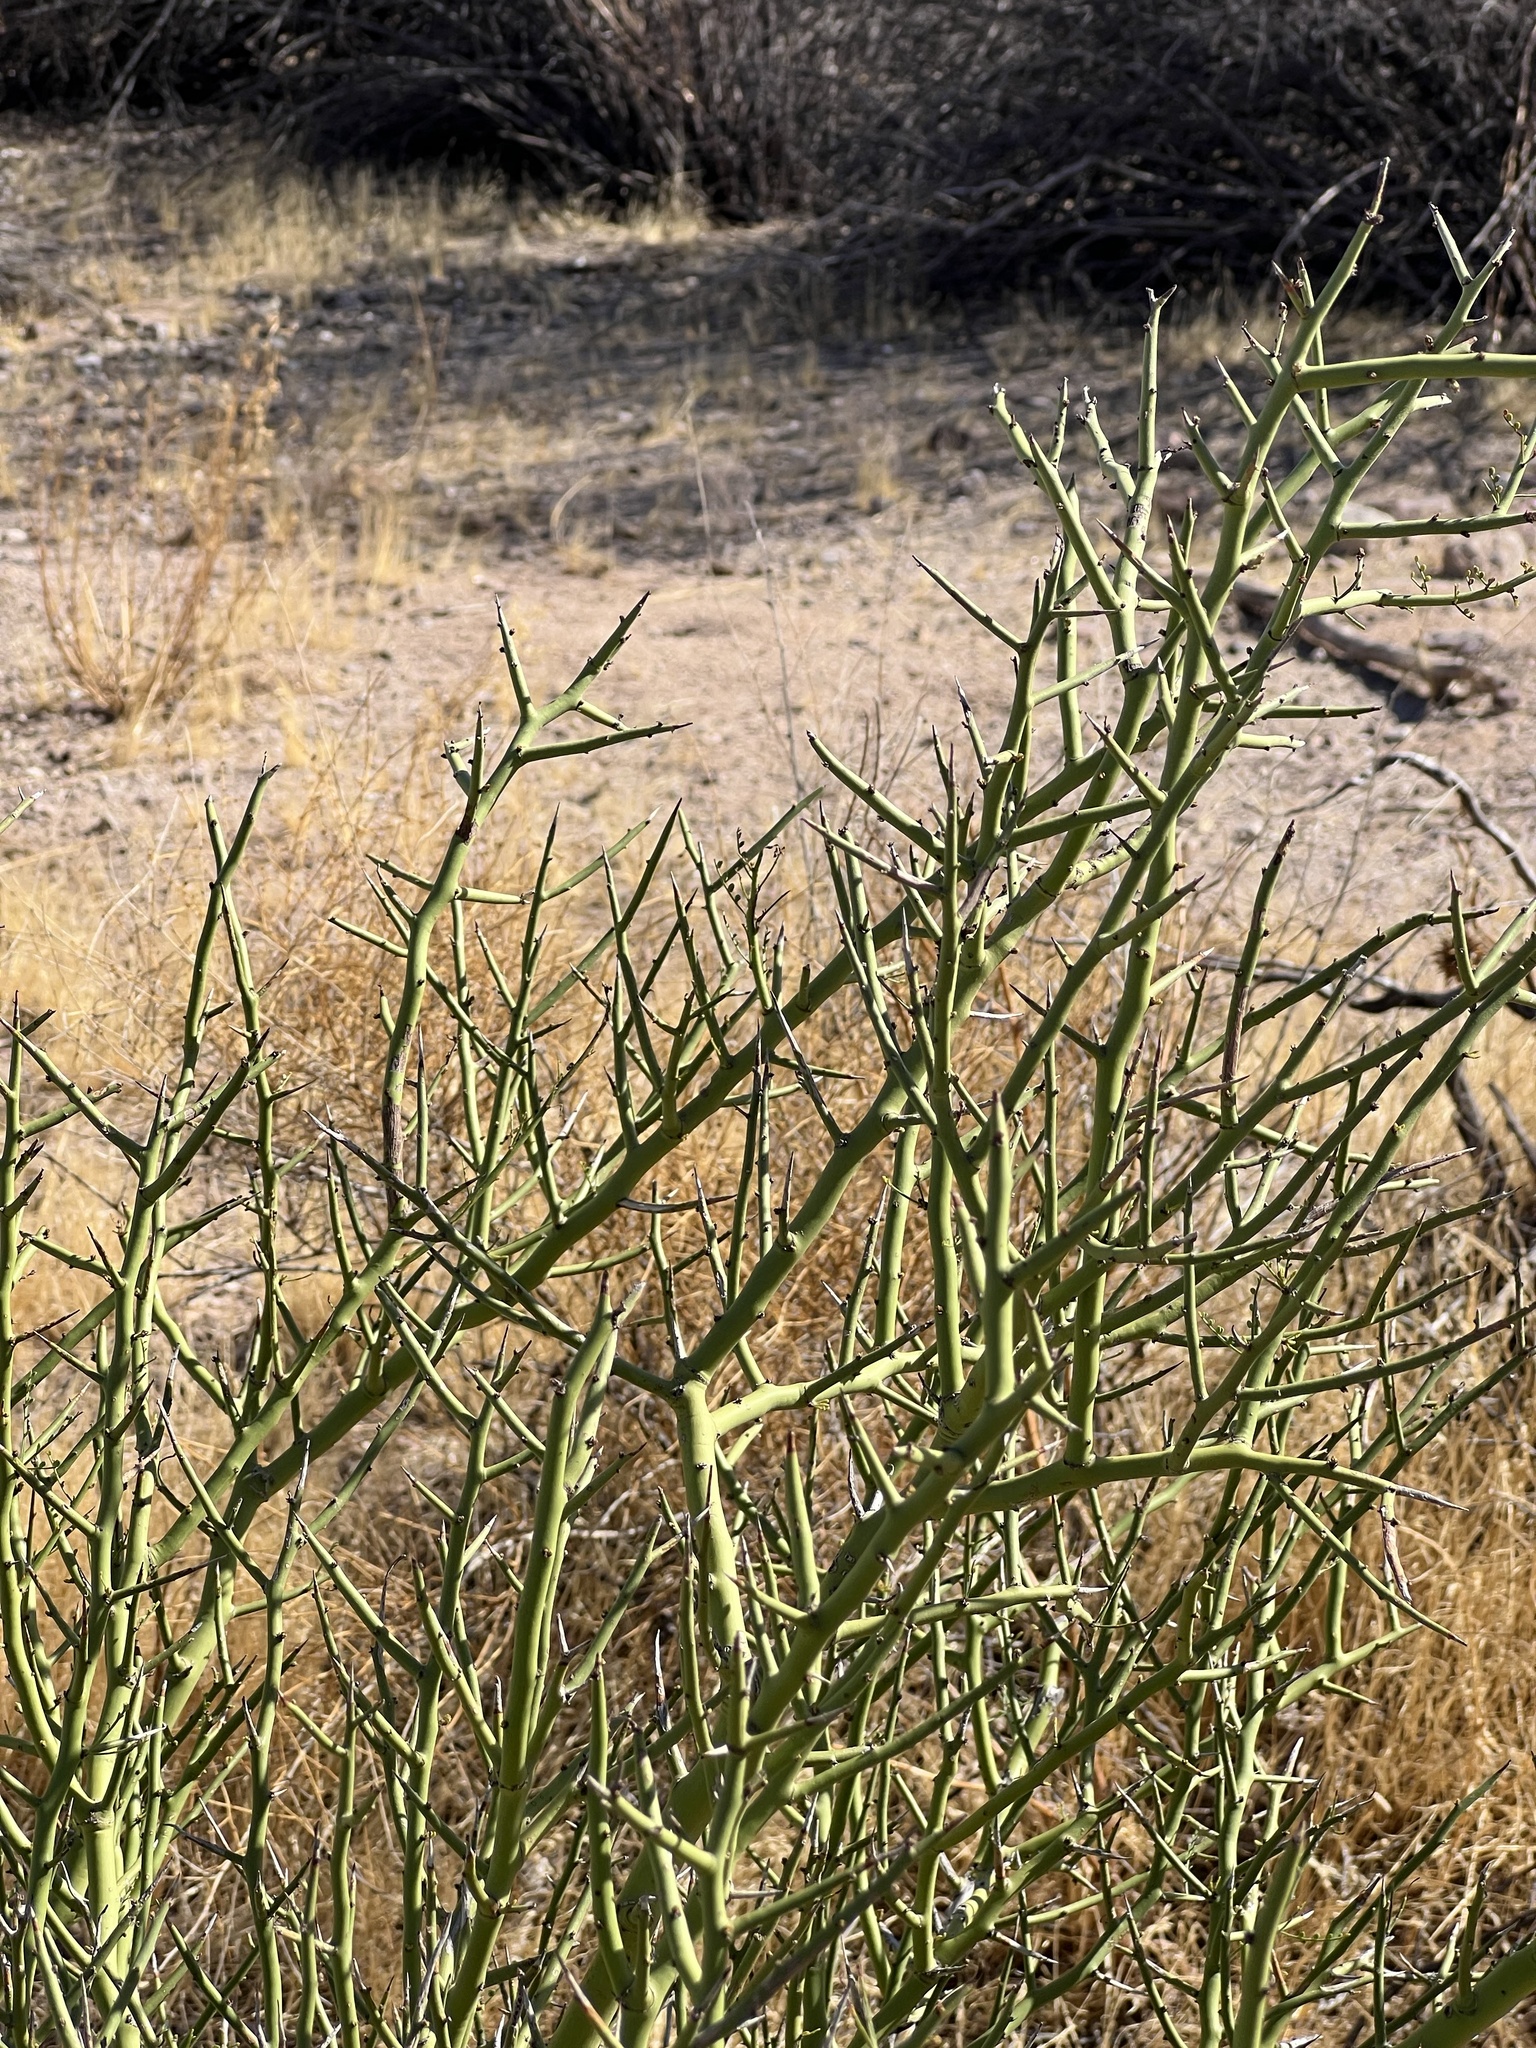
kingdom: Plantae
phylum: Tracheophyta
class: Magnoliopsida
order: Fabales
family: Fabaceae
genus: Parkinsonia
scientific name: Parkinsonia microphylla
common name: Yellow paloverde
